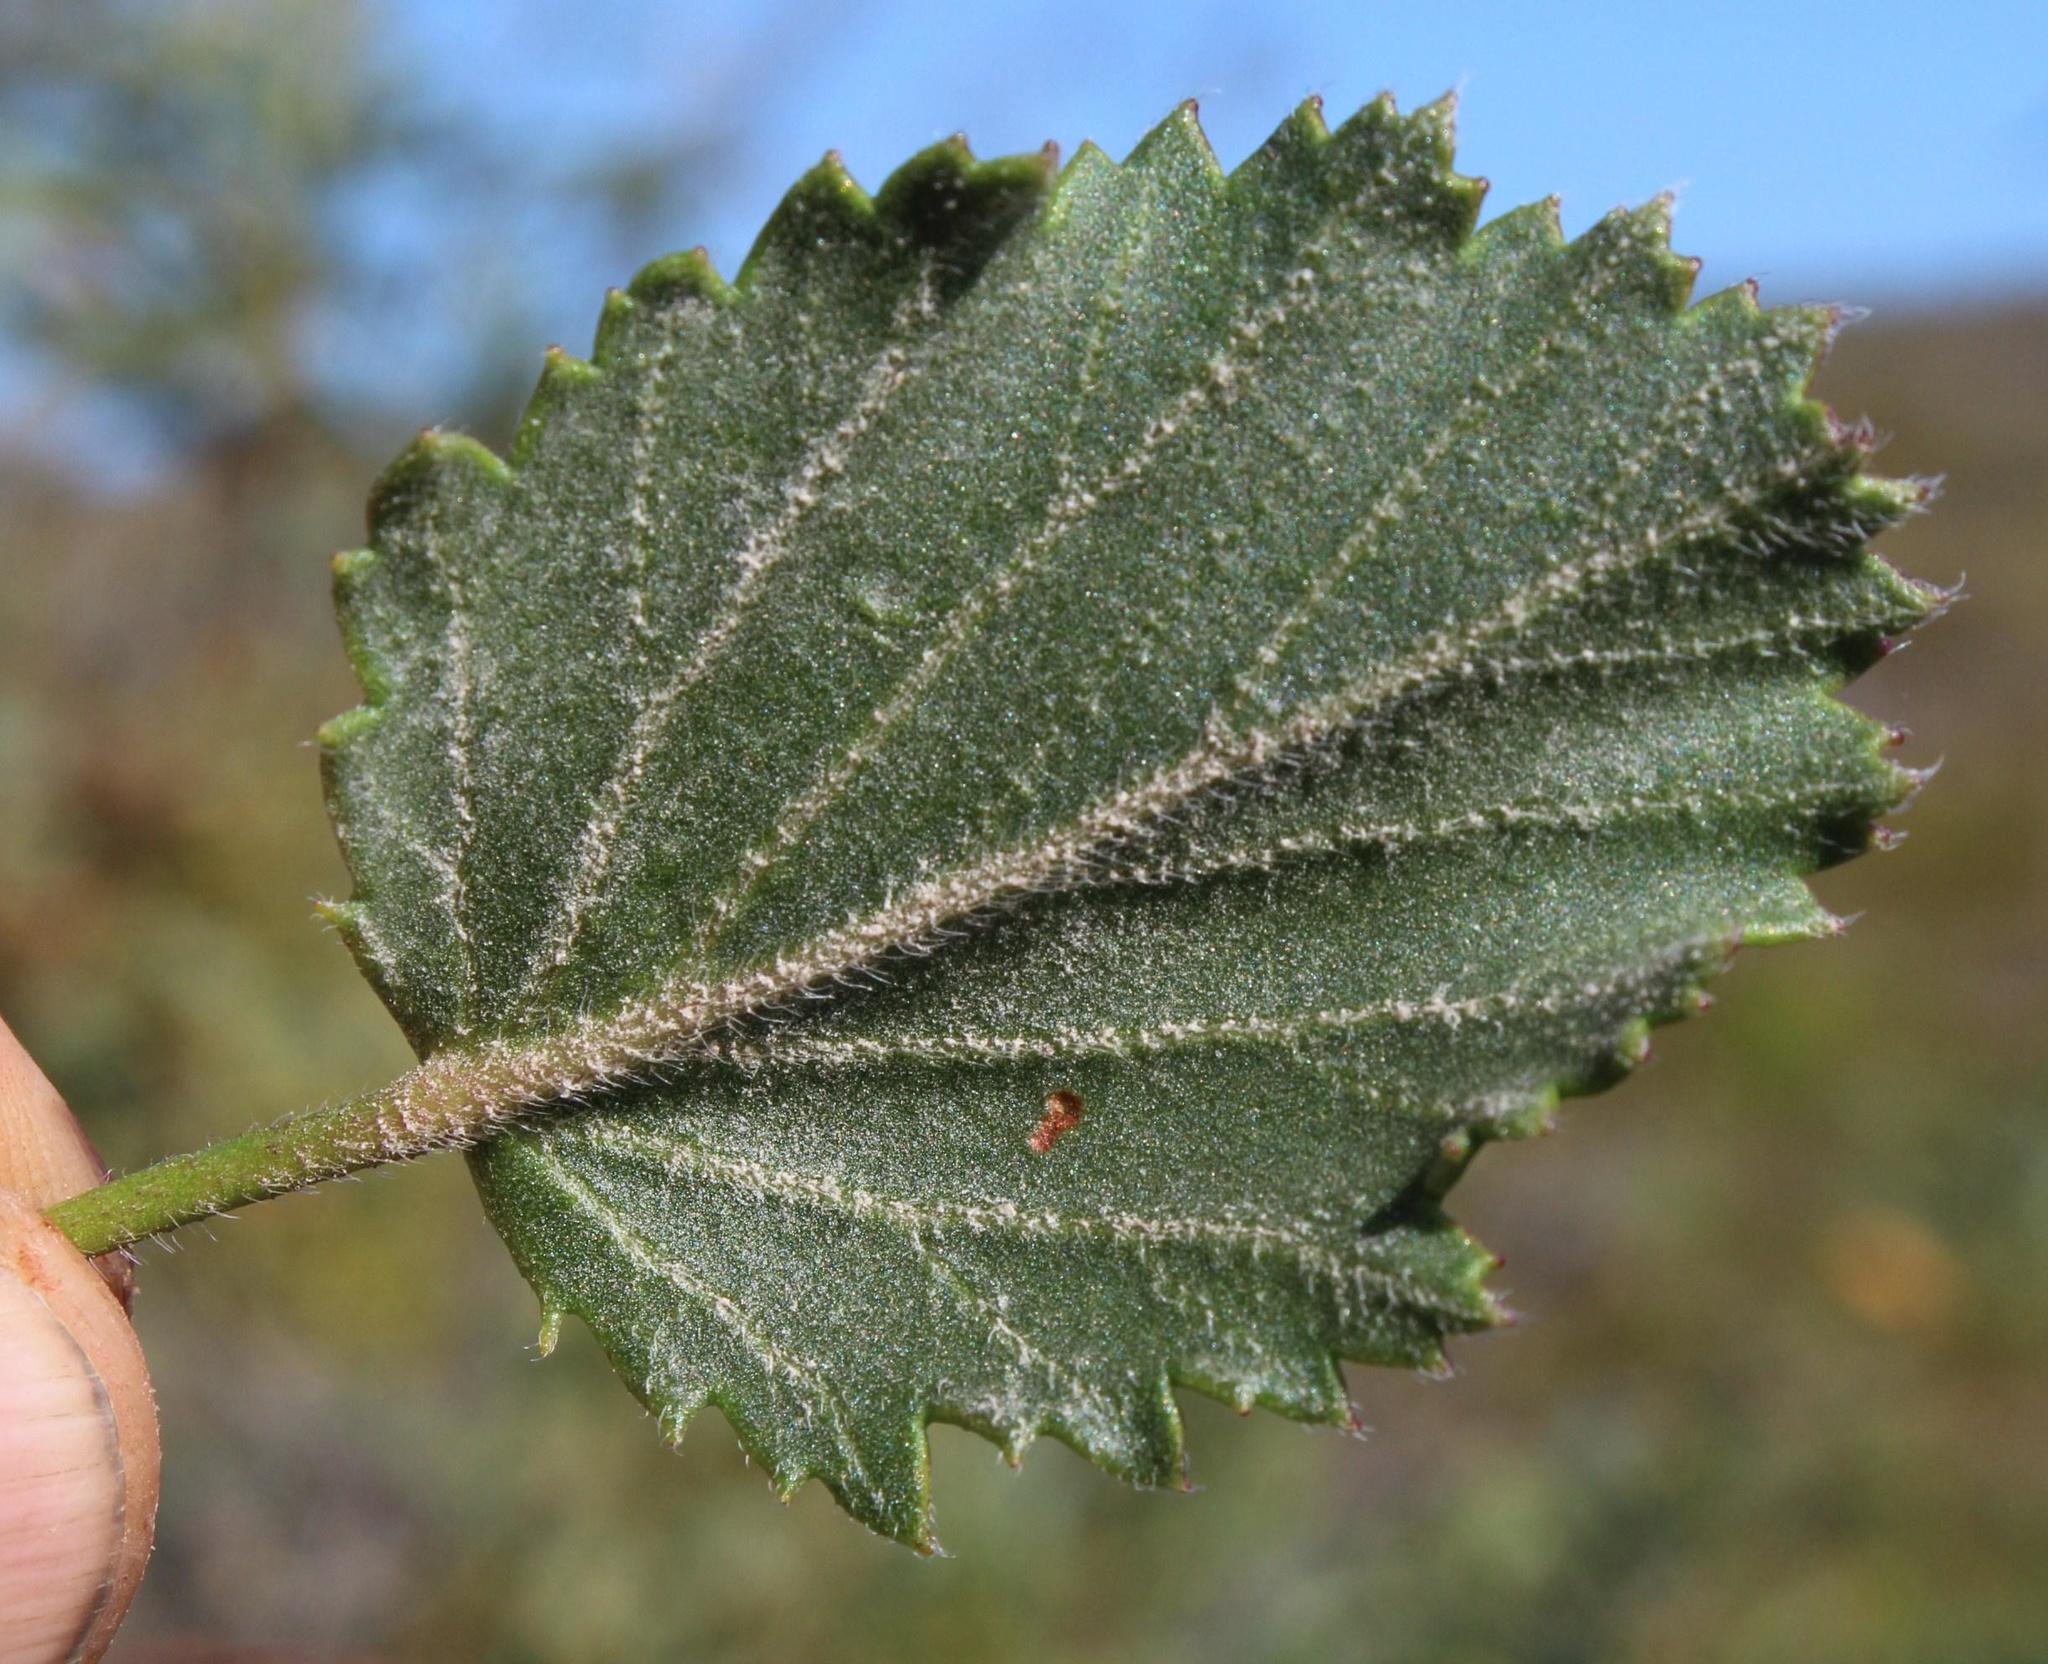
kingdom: Plantae
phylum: Tracheophyta
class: Magnoliopsida
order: Geraniales
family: Geraniaceae
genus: Pelargonium
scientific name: Pelargonium elegans
